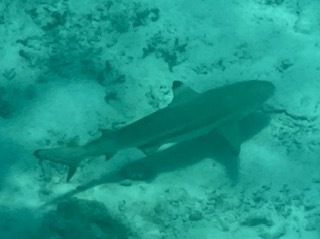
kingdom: Animalia
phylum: Chordata
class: Elasmobranchii
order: Carcharhiniformes
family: Carcharhinidae
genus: Carcharhinus
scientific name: Carcharhinus melanopterus
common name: Blacktip reef shark
